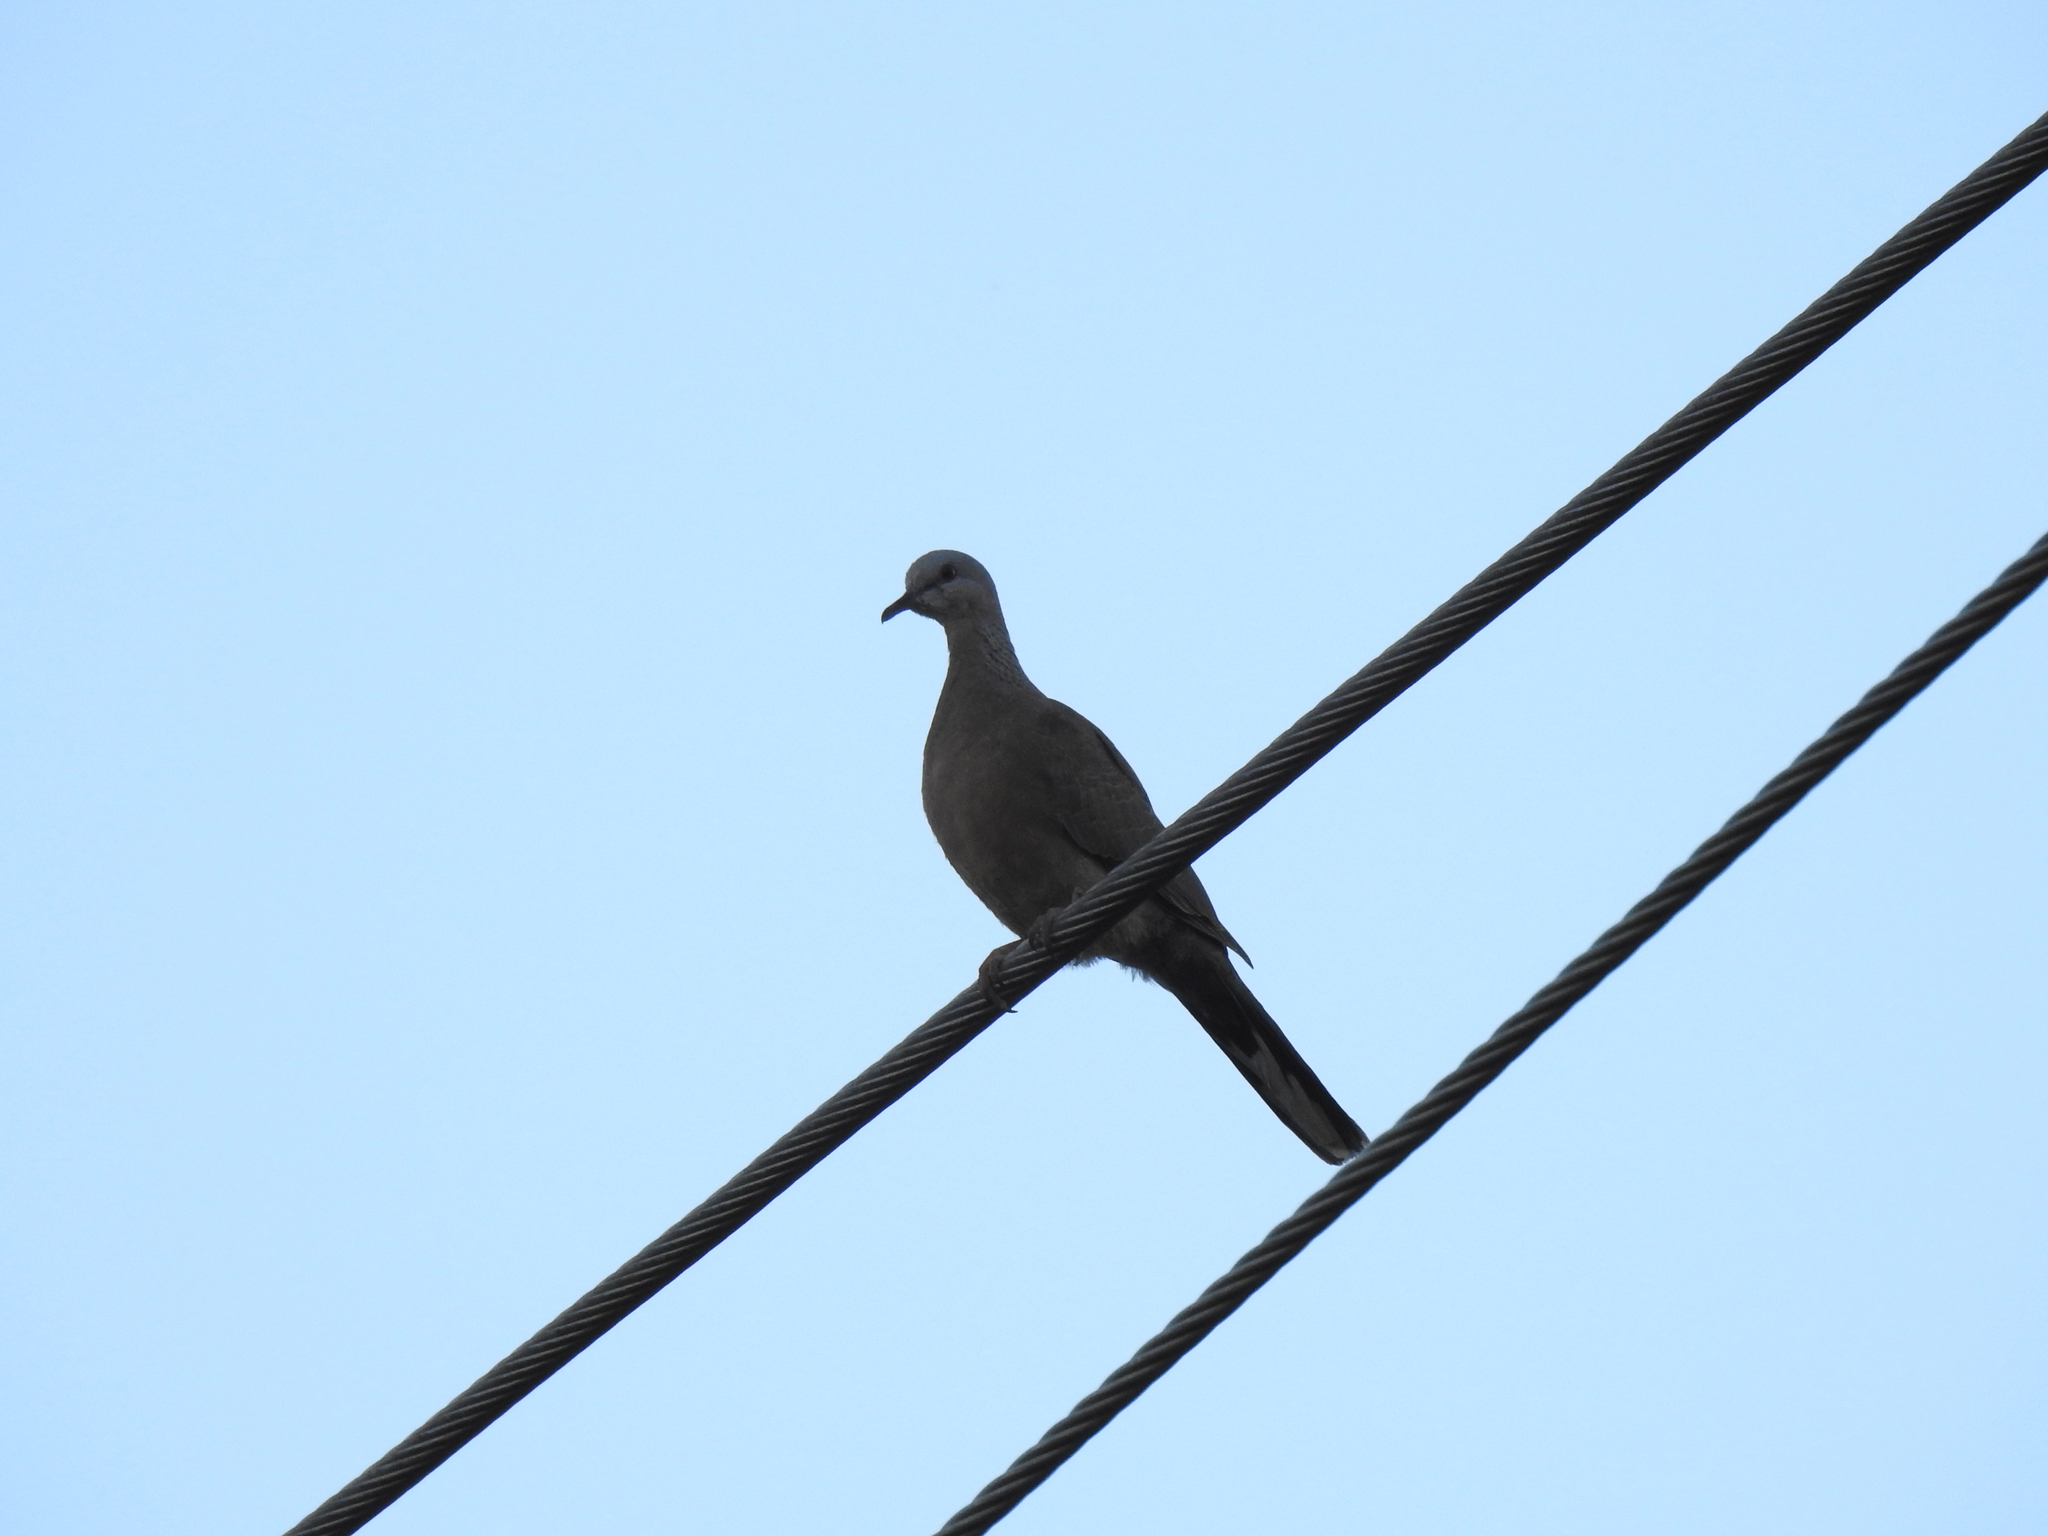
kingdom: Animalia
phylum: Chordata
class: Aves
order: Columbiformes
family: Columbidae
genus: Spilopelia
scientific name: Spilopelia chinensis
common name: Spotted dove
